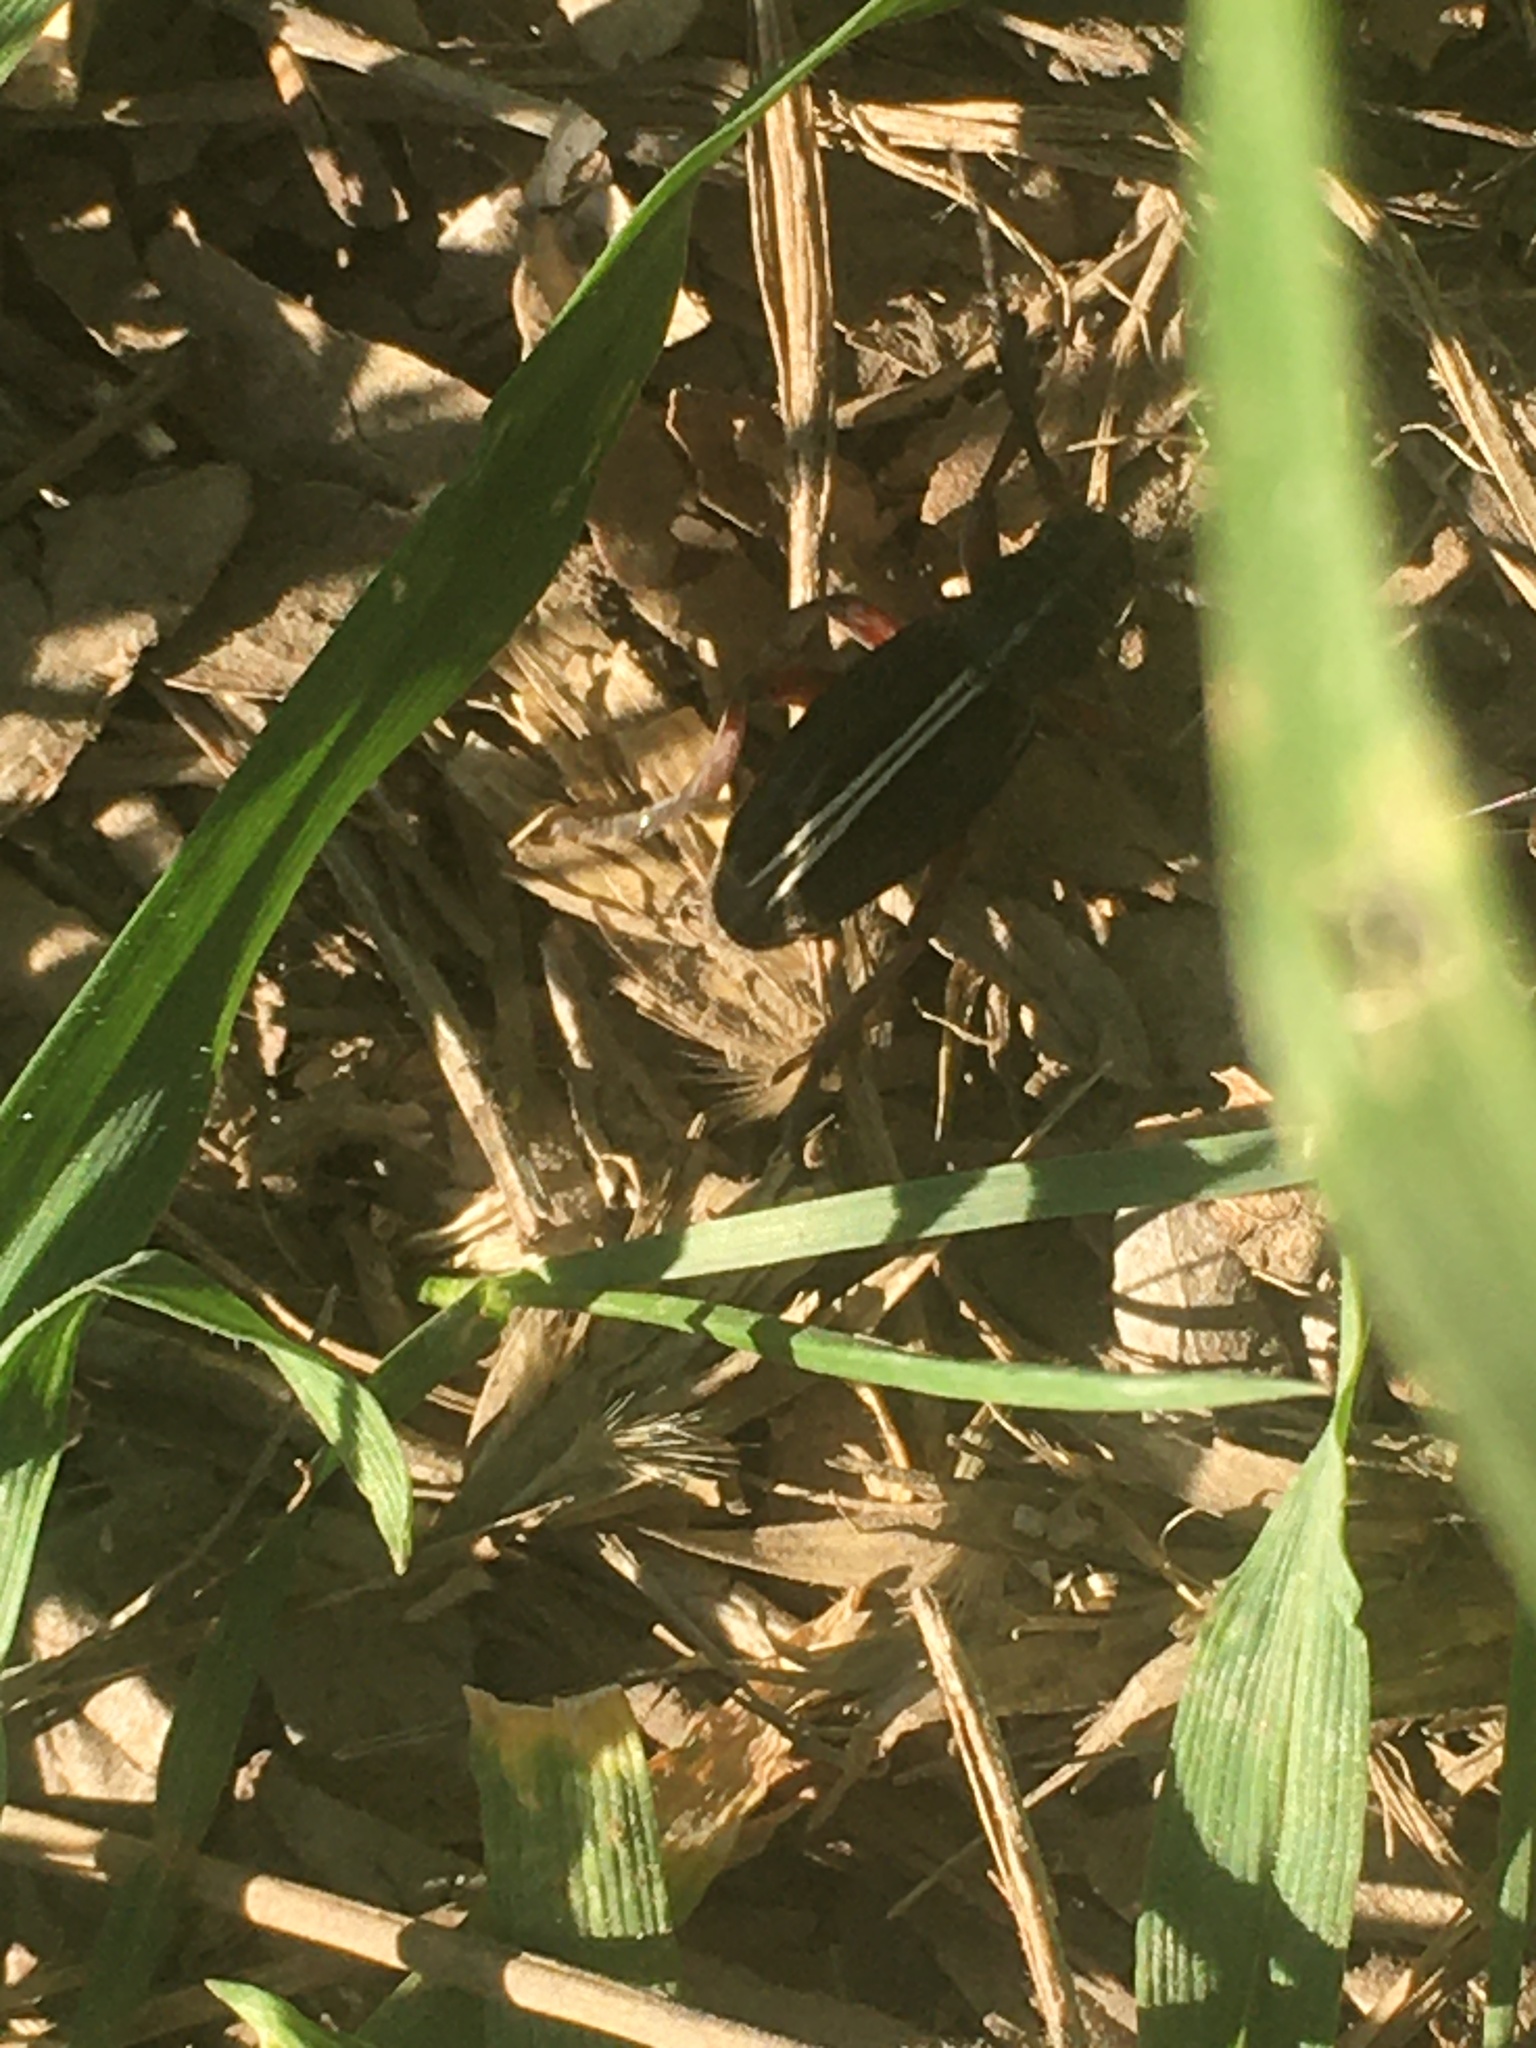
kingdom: Animalia
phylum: Arthropoda
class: Insecta
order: Coleoptera
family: Cerambycidae
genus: Dorcadion
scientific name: Dorcadion cinerarium
